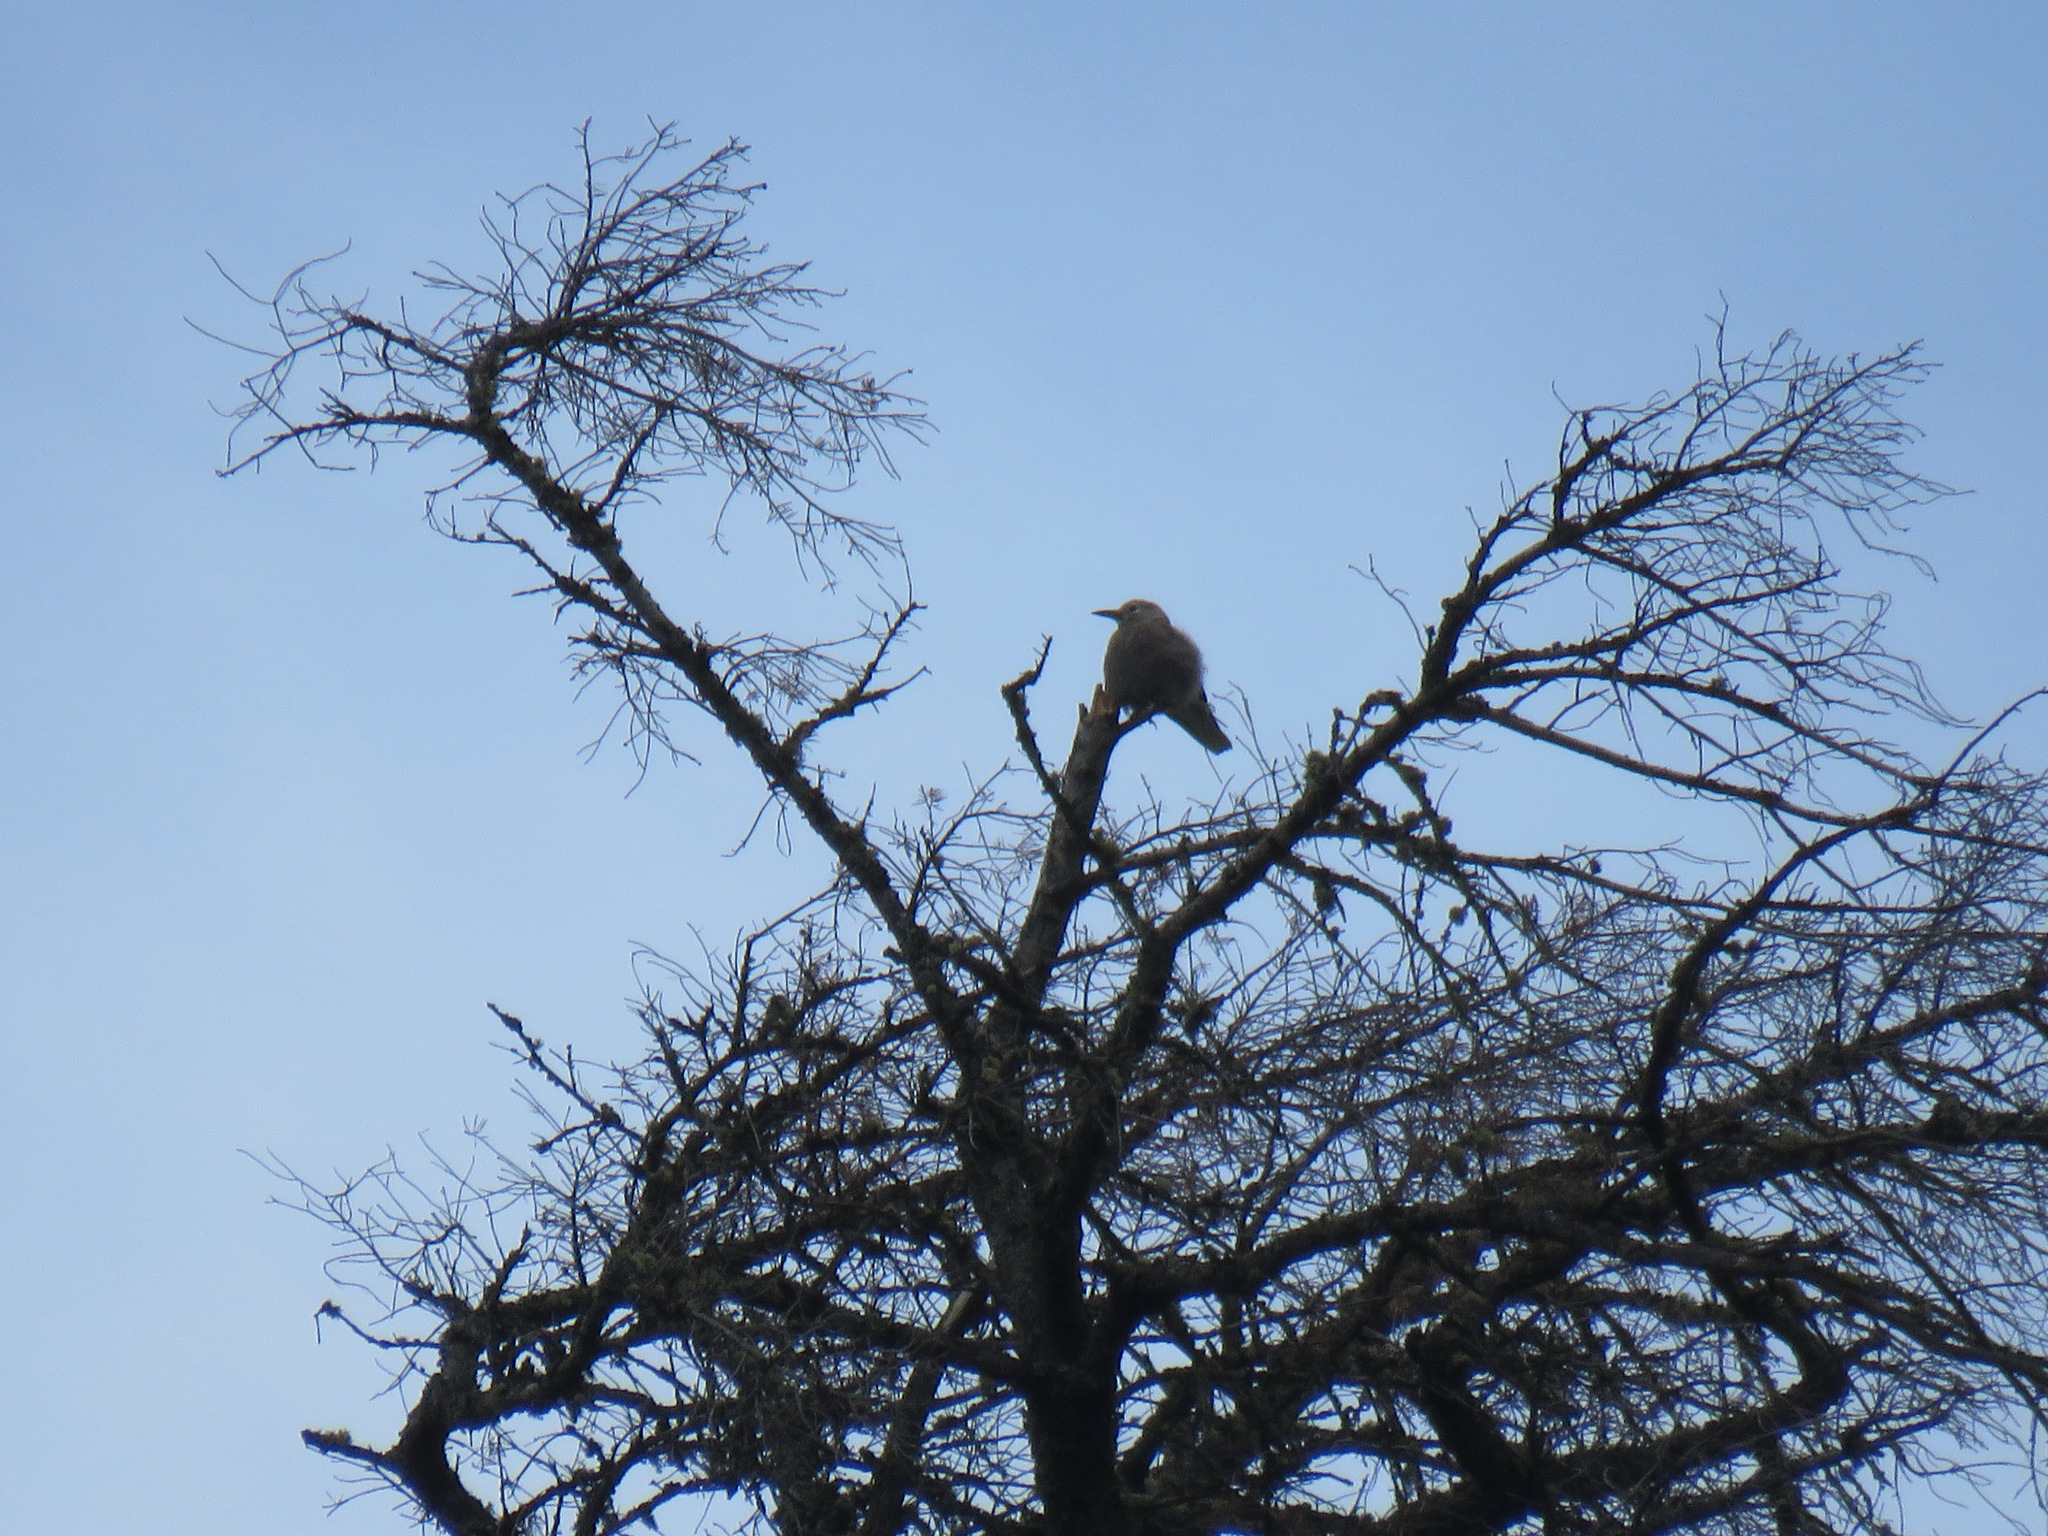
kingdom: Animalia
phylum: Chordata
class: Aves
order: Passeriformes
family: Corvidae
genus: Nucifraga
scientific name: Nucifraga columbiana
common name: Clark's nutcracker
